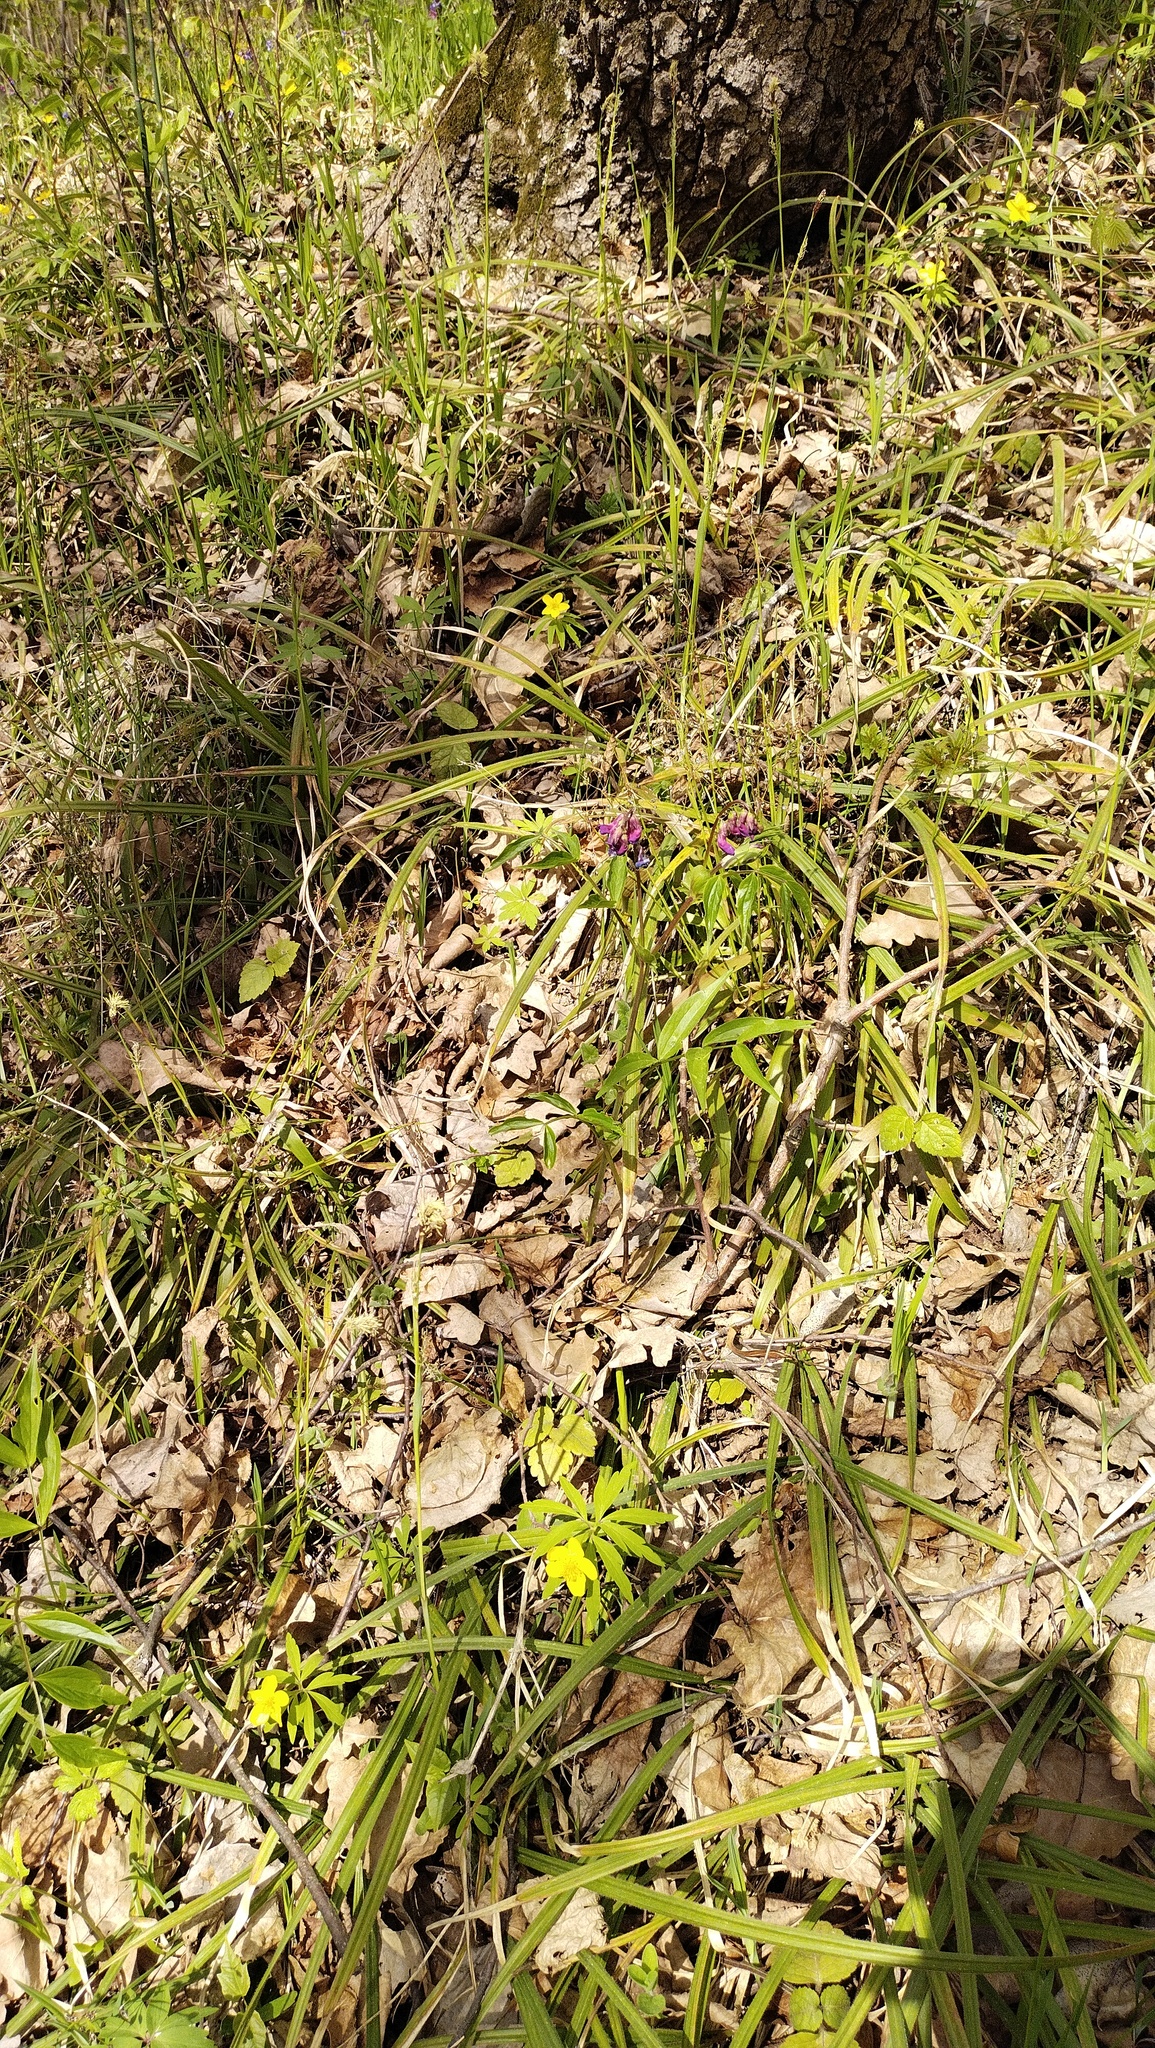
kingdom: Plantae
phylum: Tracheophyta
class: Magnoliopsida
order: Fabales
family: Fabaceae
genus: Lathyrus
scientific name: Lathyrus vernus
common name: Spring pea
